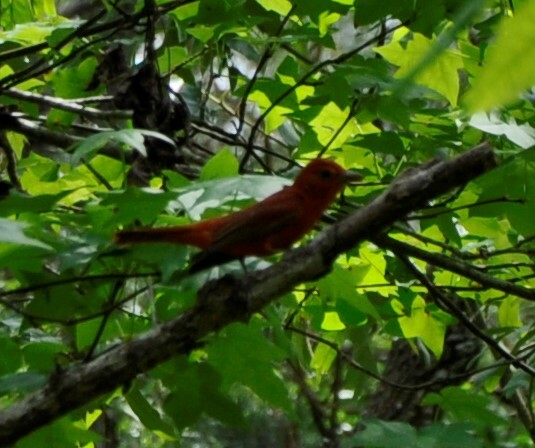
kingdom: Animalia
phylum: Chordata
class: Aves
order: Passeriformes
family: Cardinalidae
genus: Piranga
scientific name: Piranga olivacea
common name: Scarlet tanager
